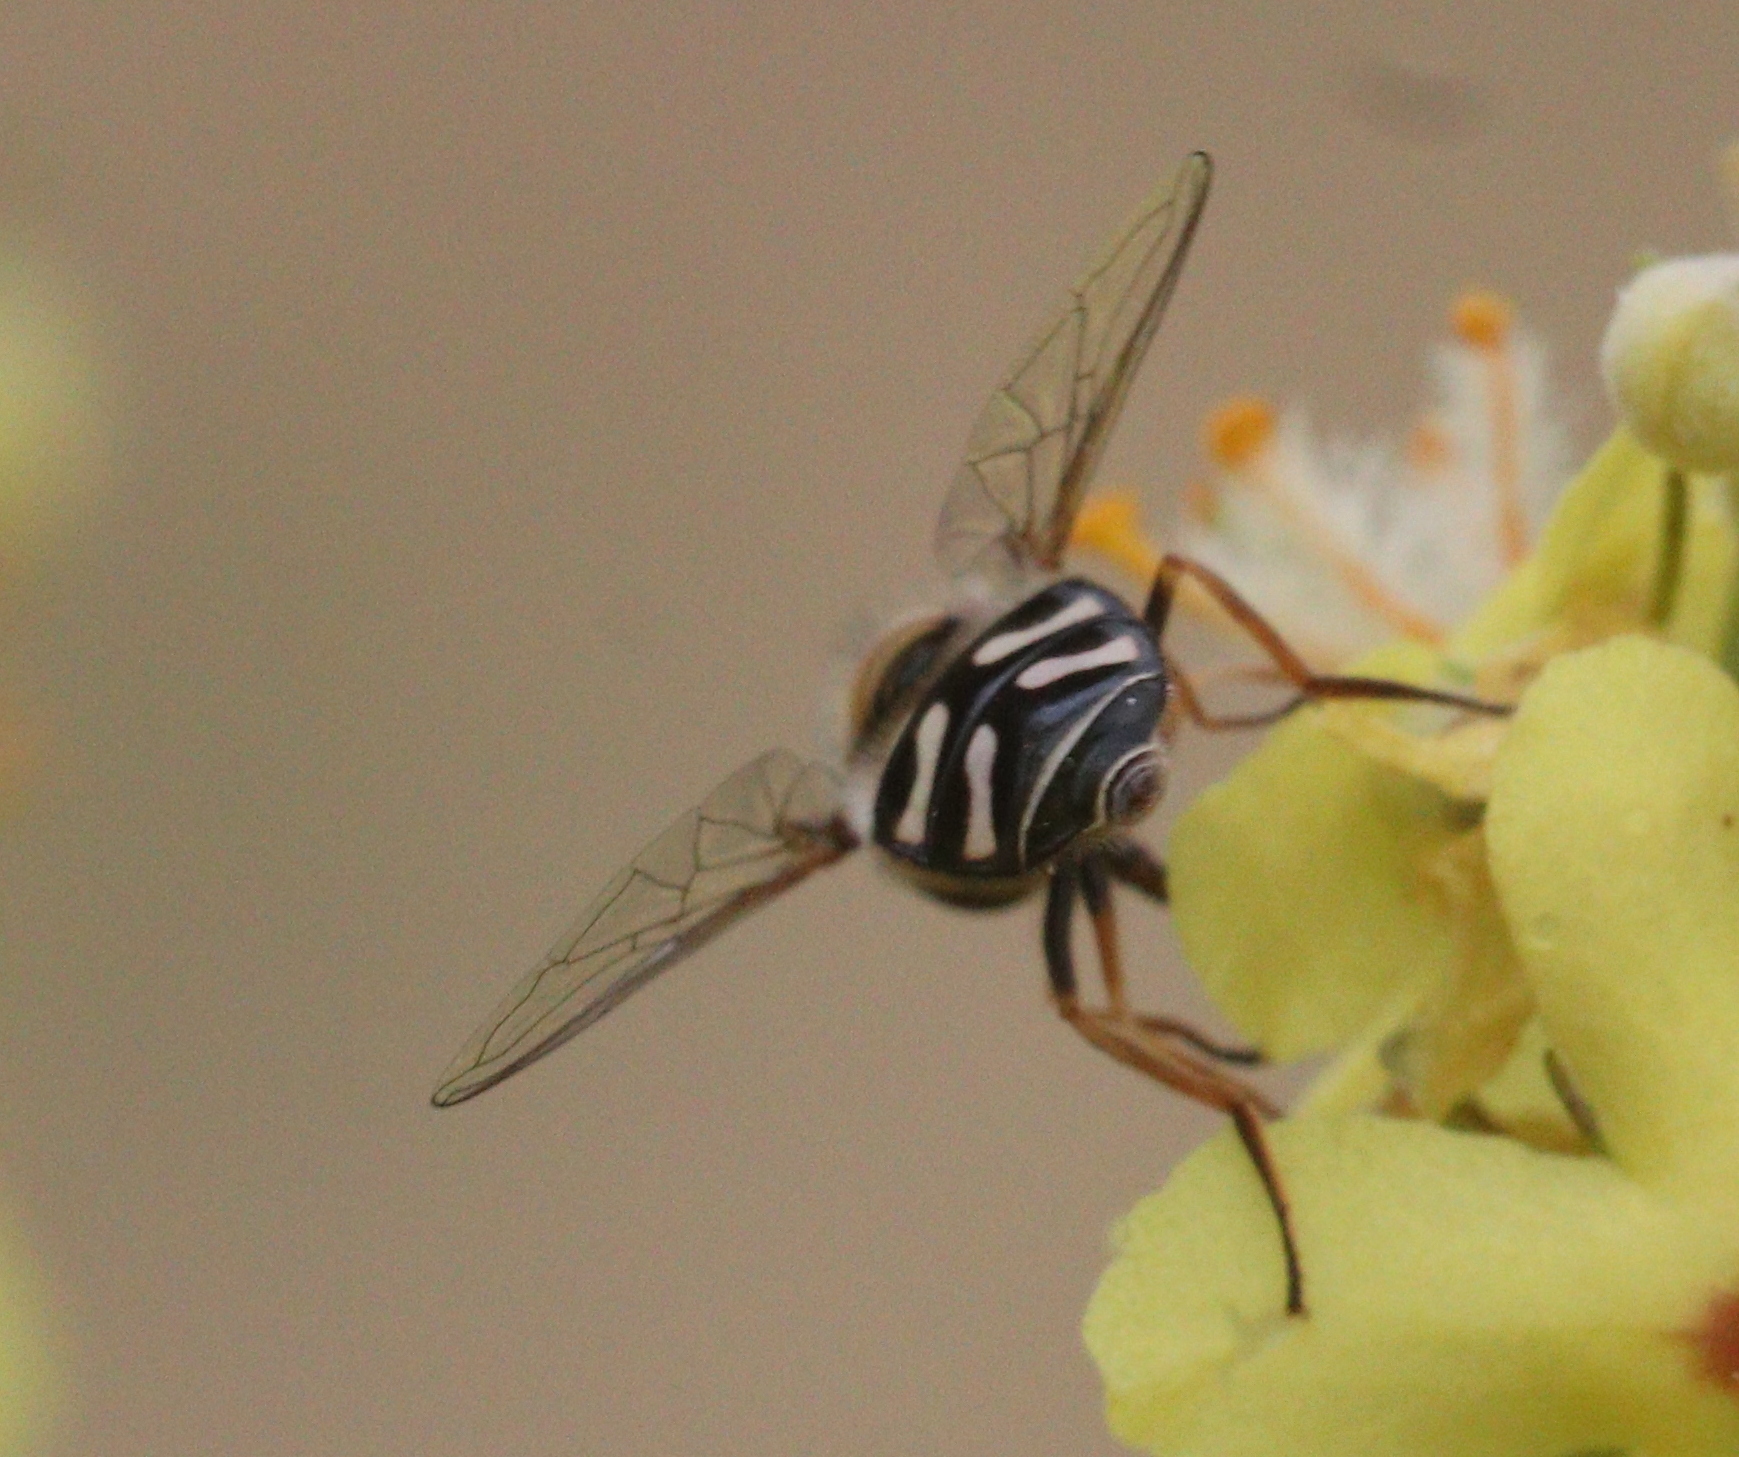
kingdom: Animalia
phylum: Arthropoda
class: Insecta
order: Diptera
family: Syrphidae
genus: Scaeva
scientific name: Scaeva pyrastri
